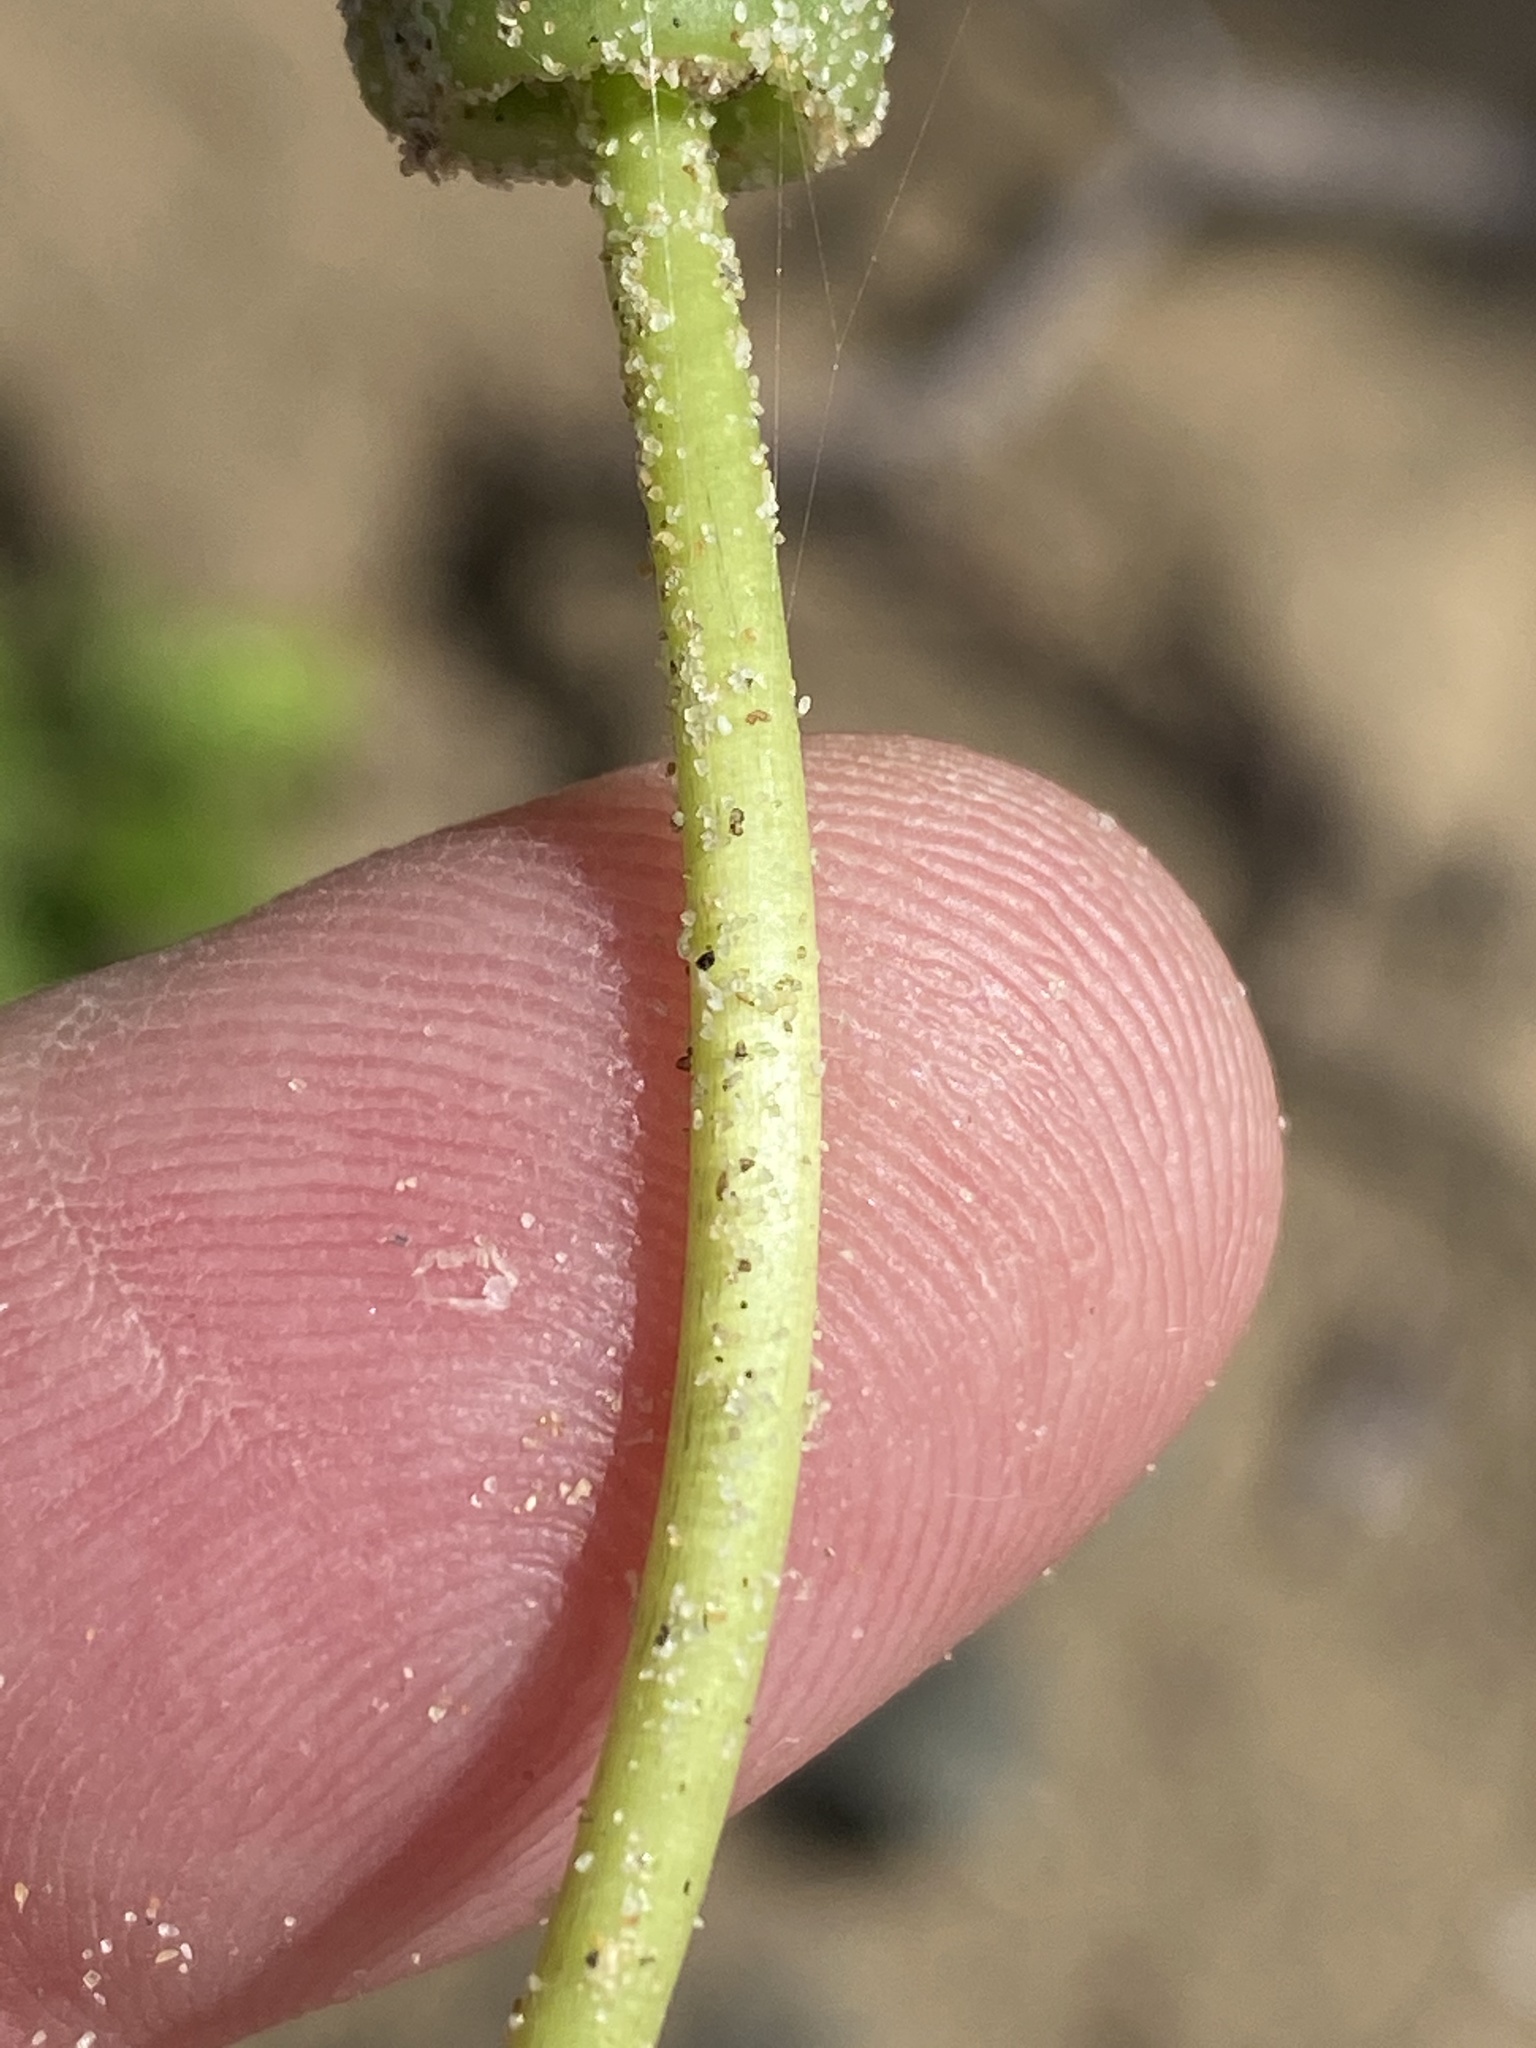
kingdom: Plantae
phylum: Tracheophyta
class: Magnoliopsida
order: Asterales
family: Asteraceae
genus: Gazania
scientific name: Gazania rigens
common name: Treasureflower
